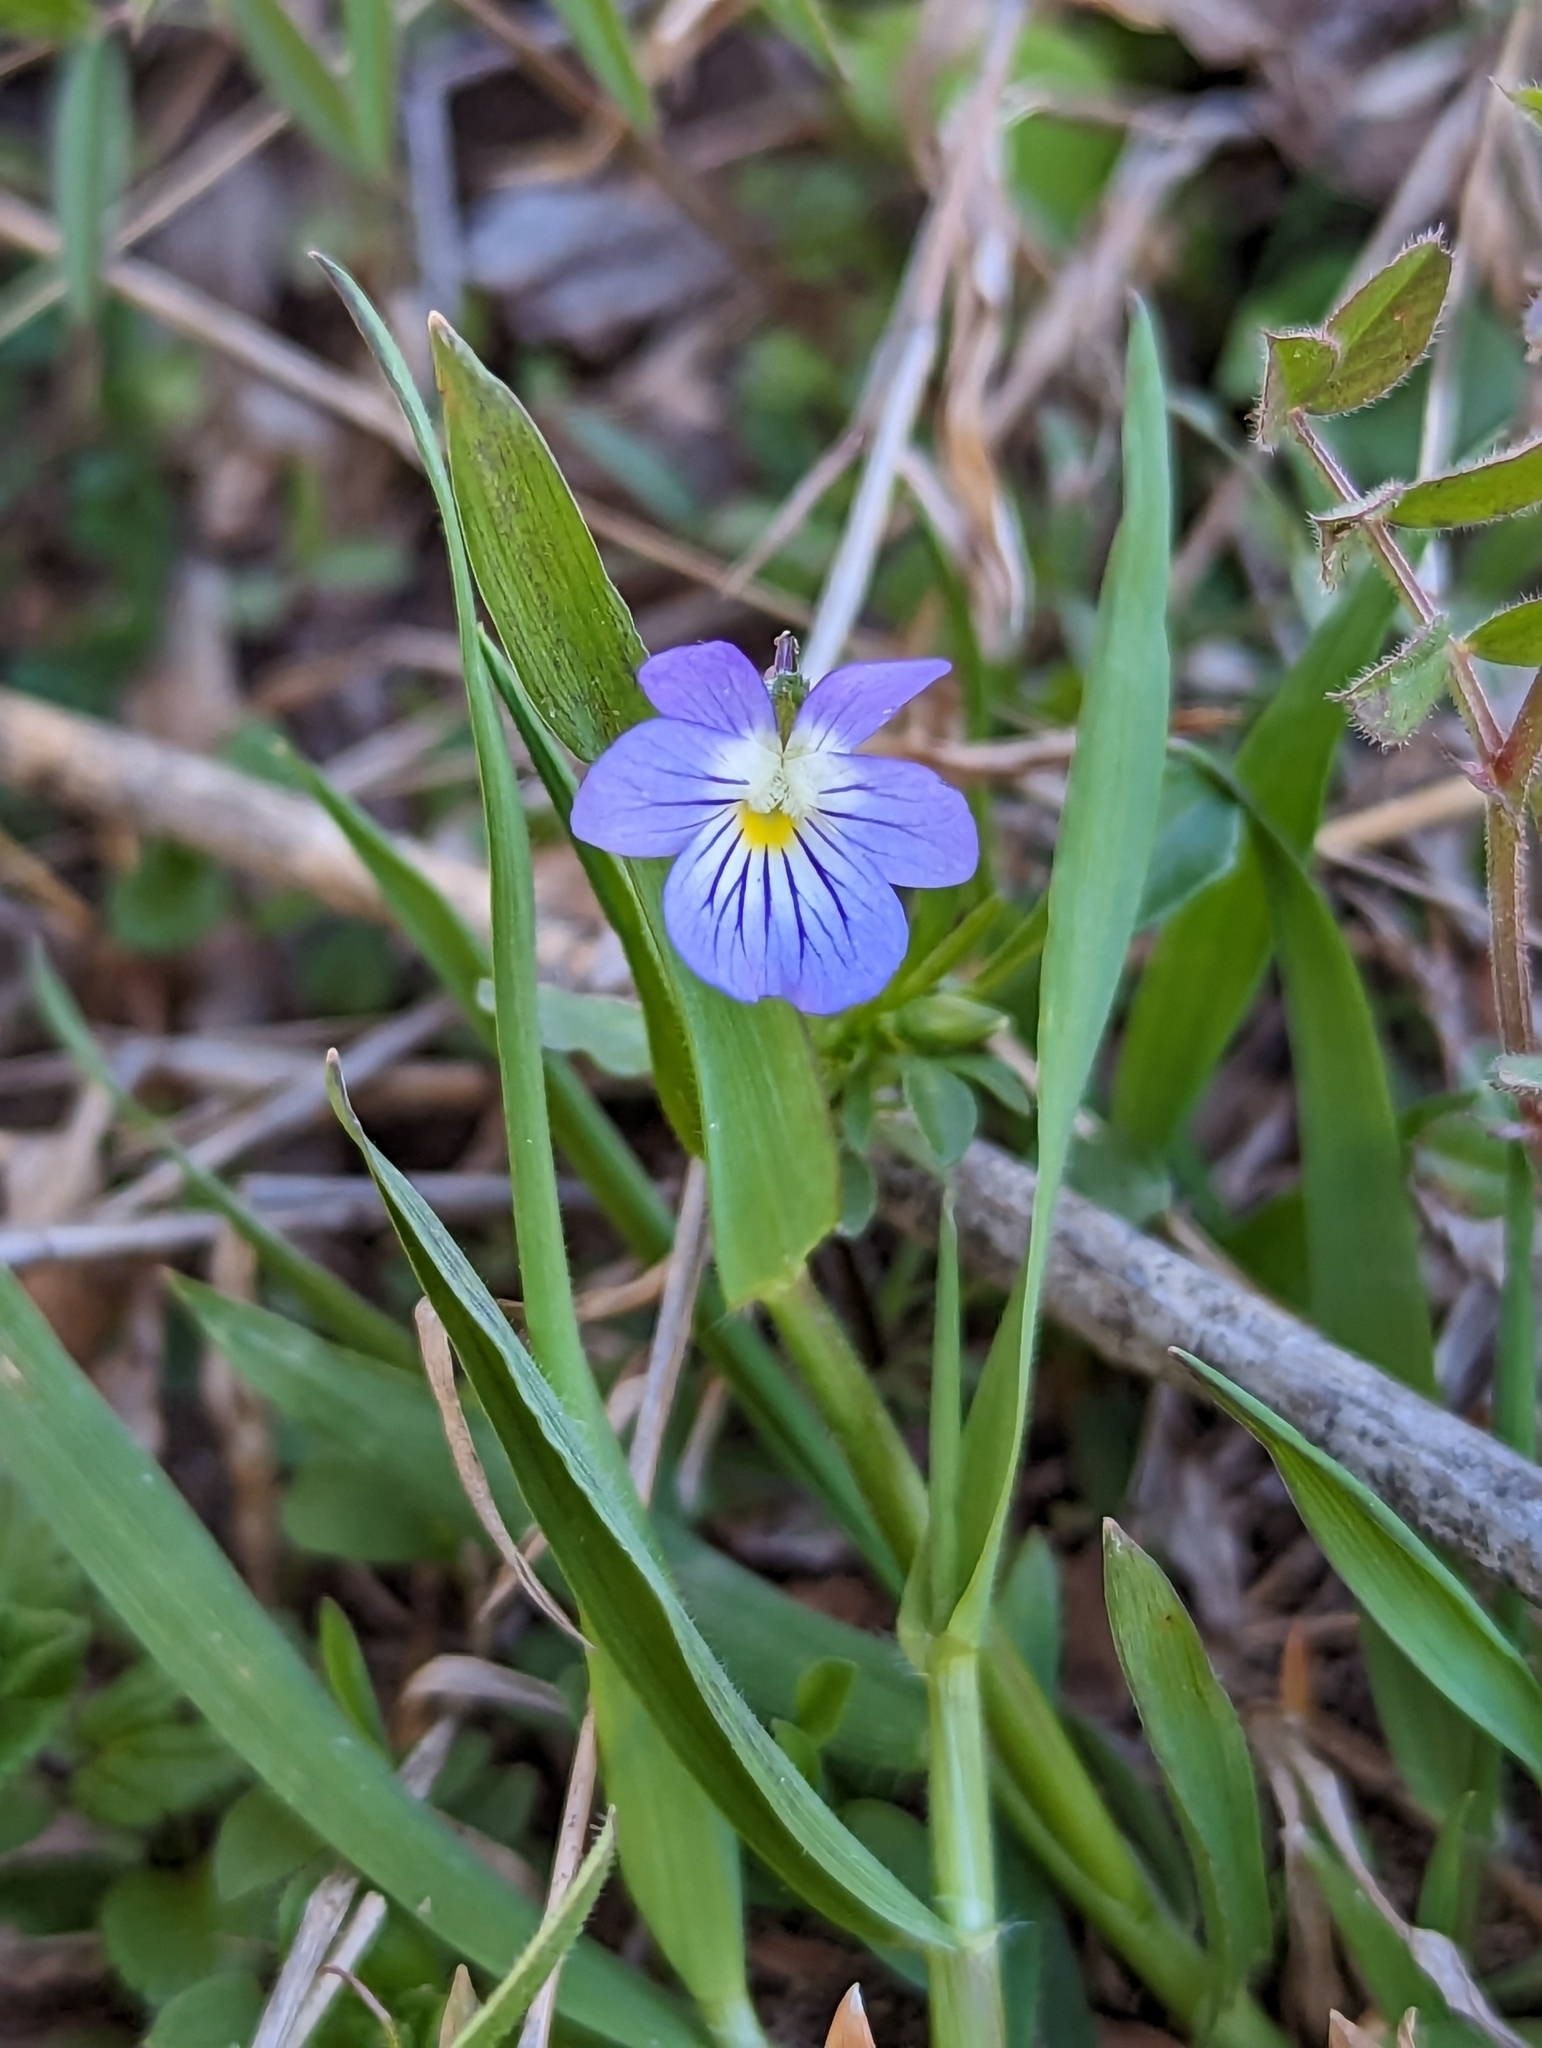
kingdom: Plantae
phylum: Tracheophyta
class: Magnoliopsida
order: Malpighiales
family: Violaceae
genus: Viola
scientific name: Viola rafinesquei
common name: American field pansy
